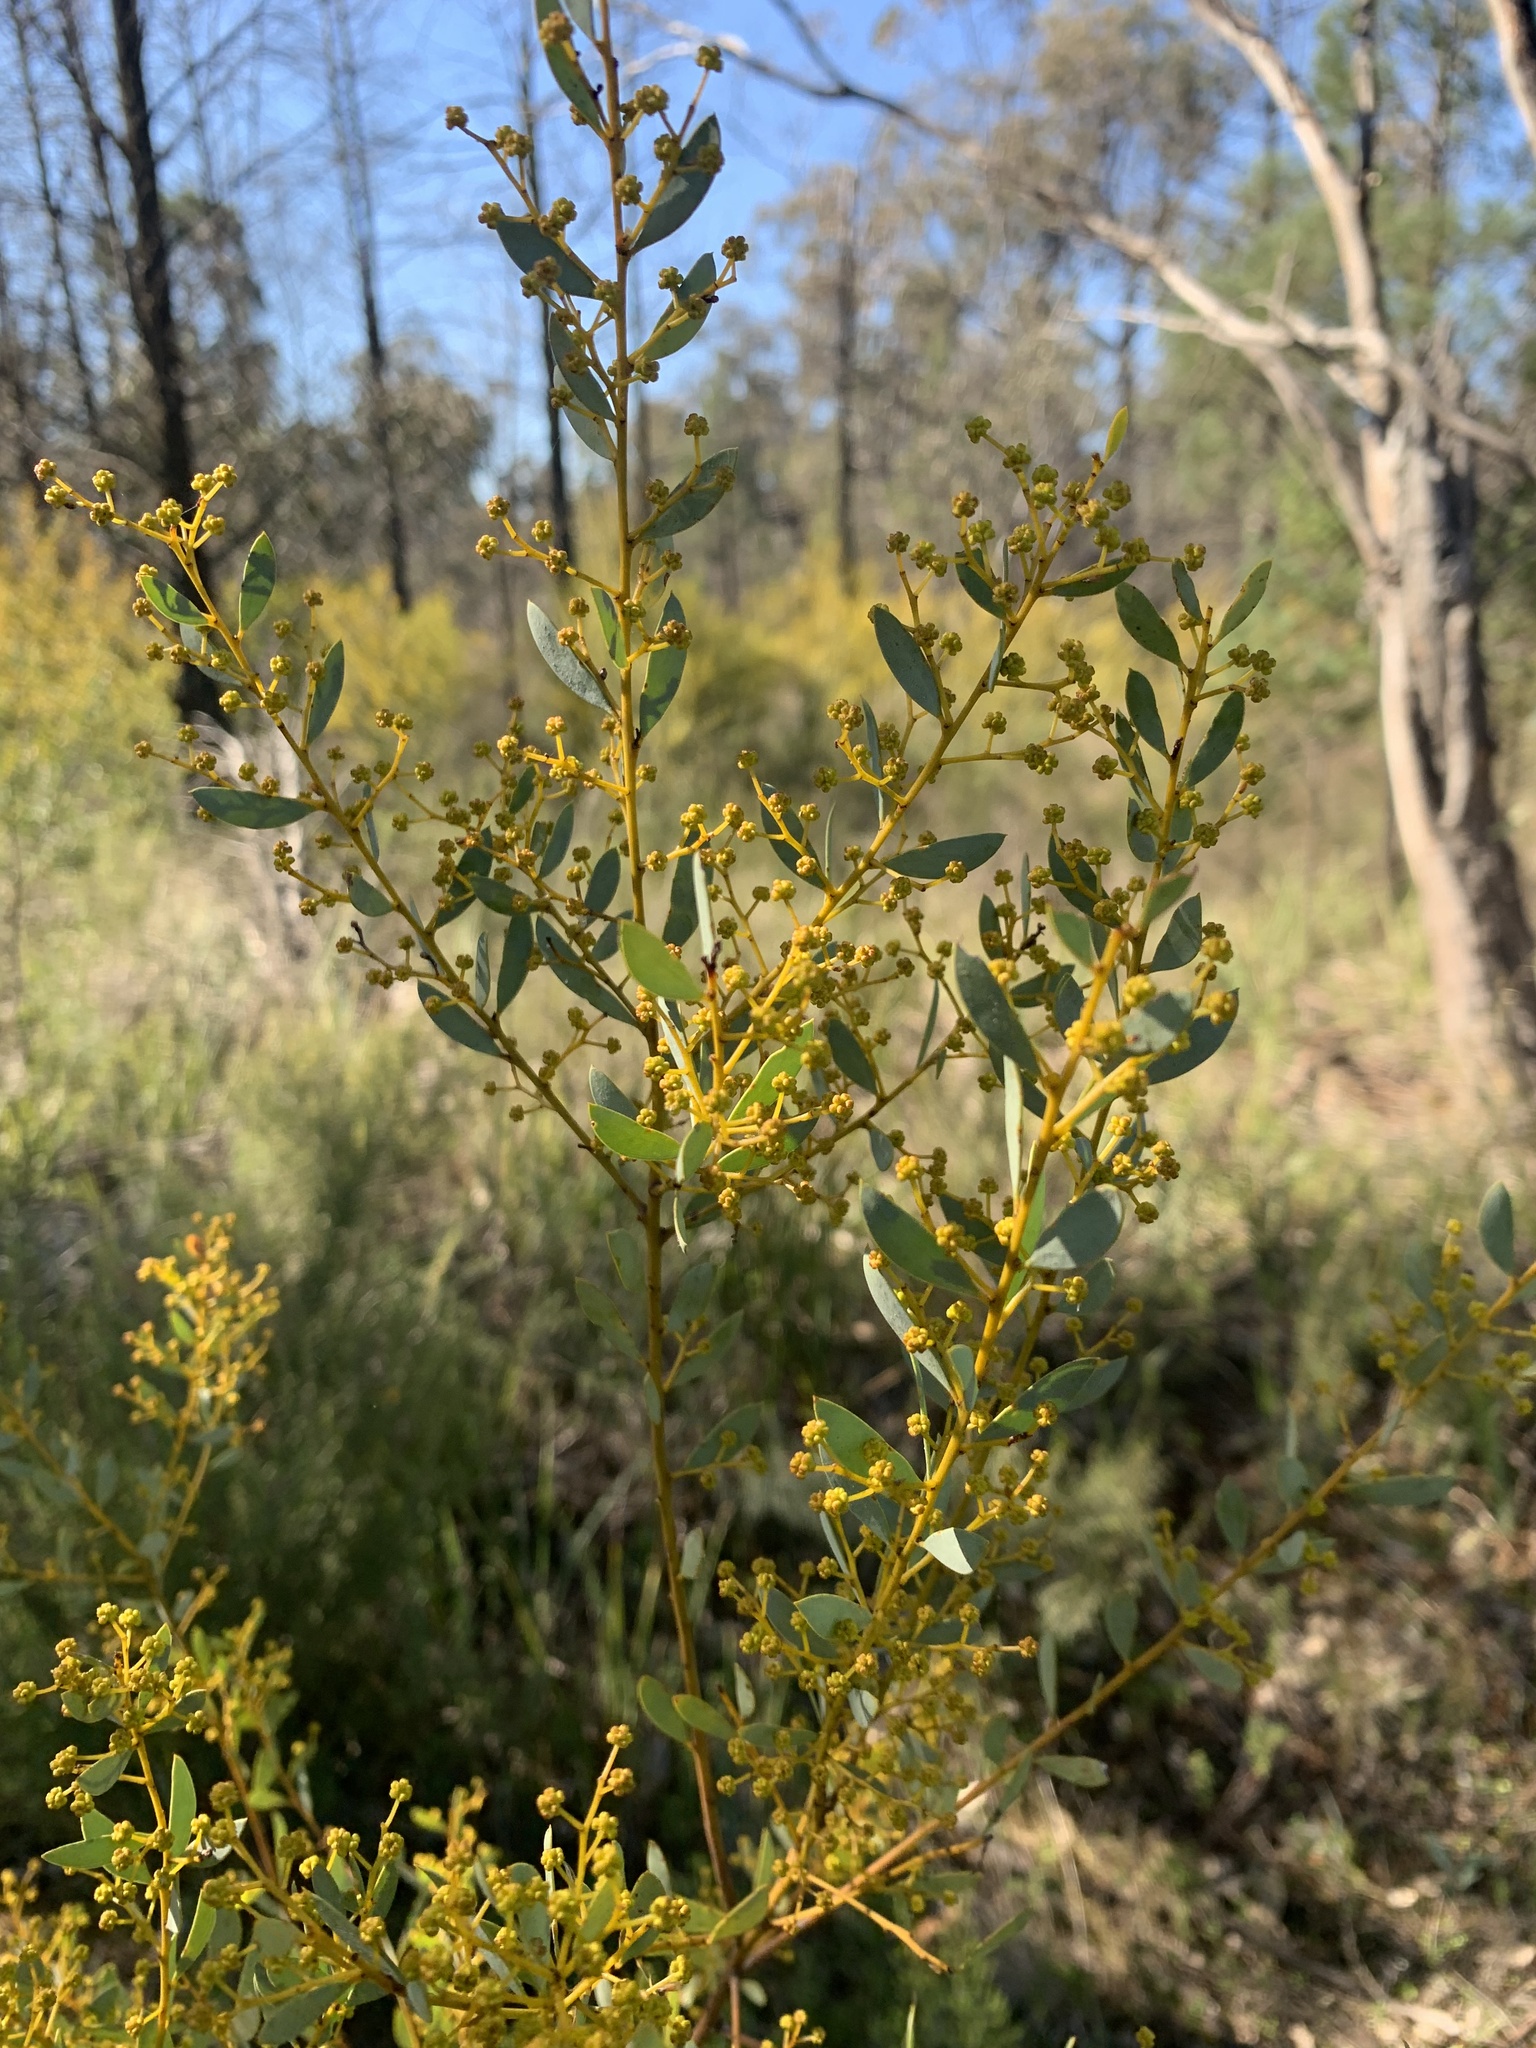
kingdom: Plantae
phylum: Tracheophyta
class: Magnoliopsida
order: Fabales
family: Fabaceae
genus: Acacia
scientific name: Acacia buxifolia
